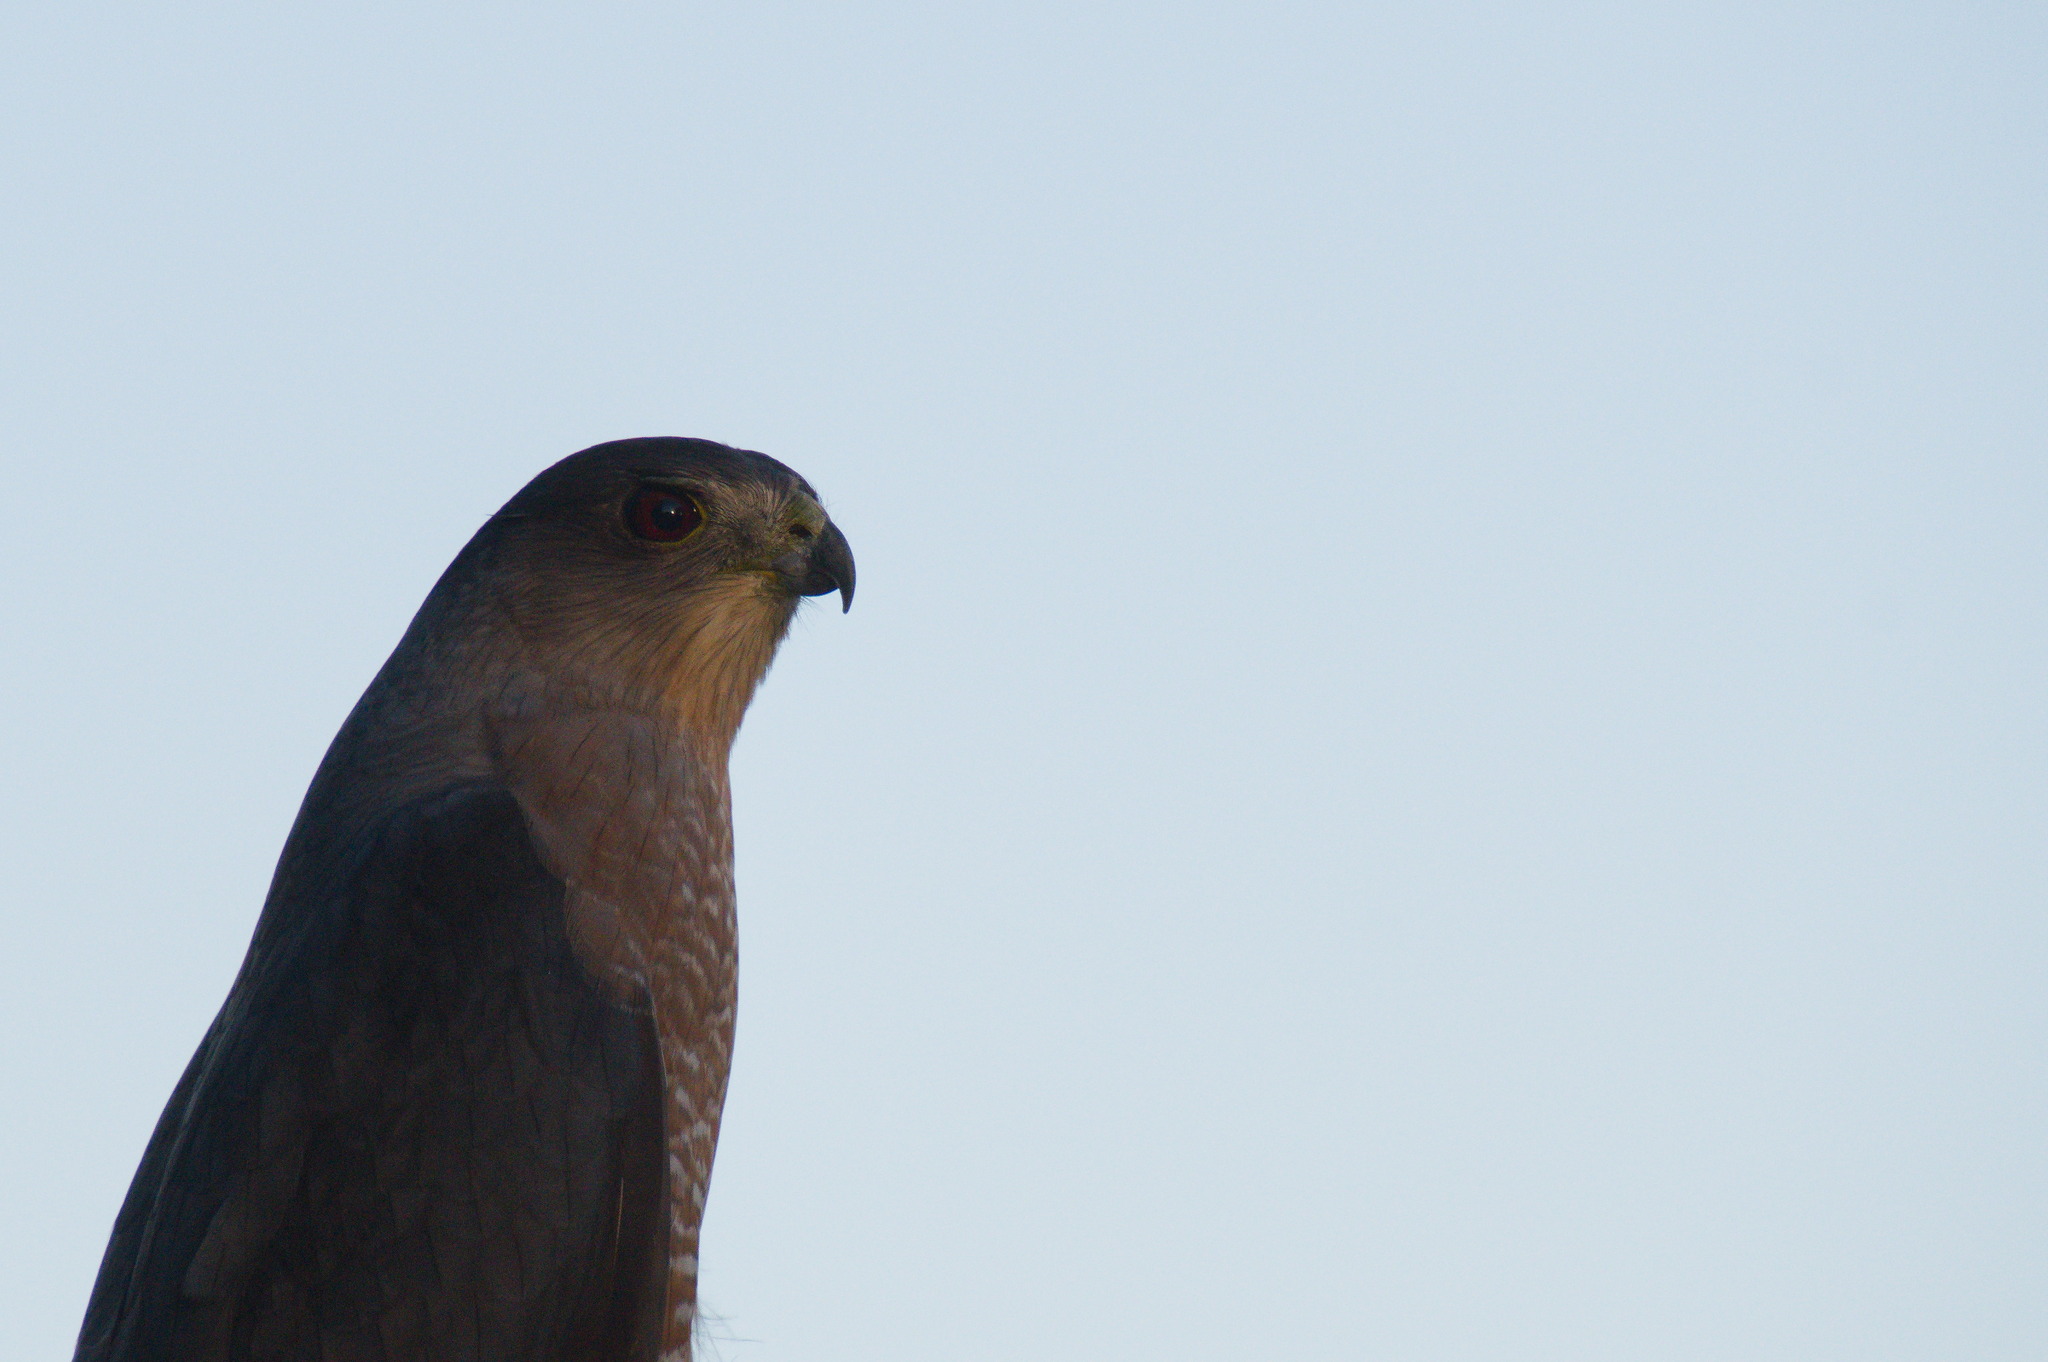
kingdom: Animalia
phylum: Chordata
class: Aves
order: Accipitriformes
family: Accipitridae
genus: Accipiter
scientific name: Accipiter cooperii
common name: Cooper's hawk
